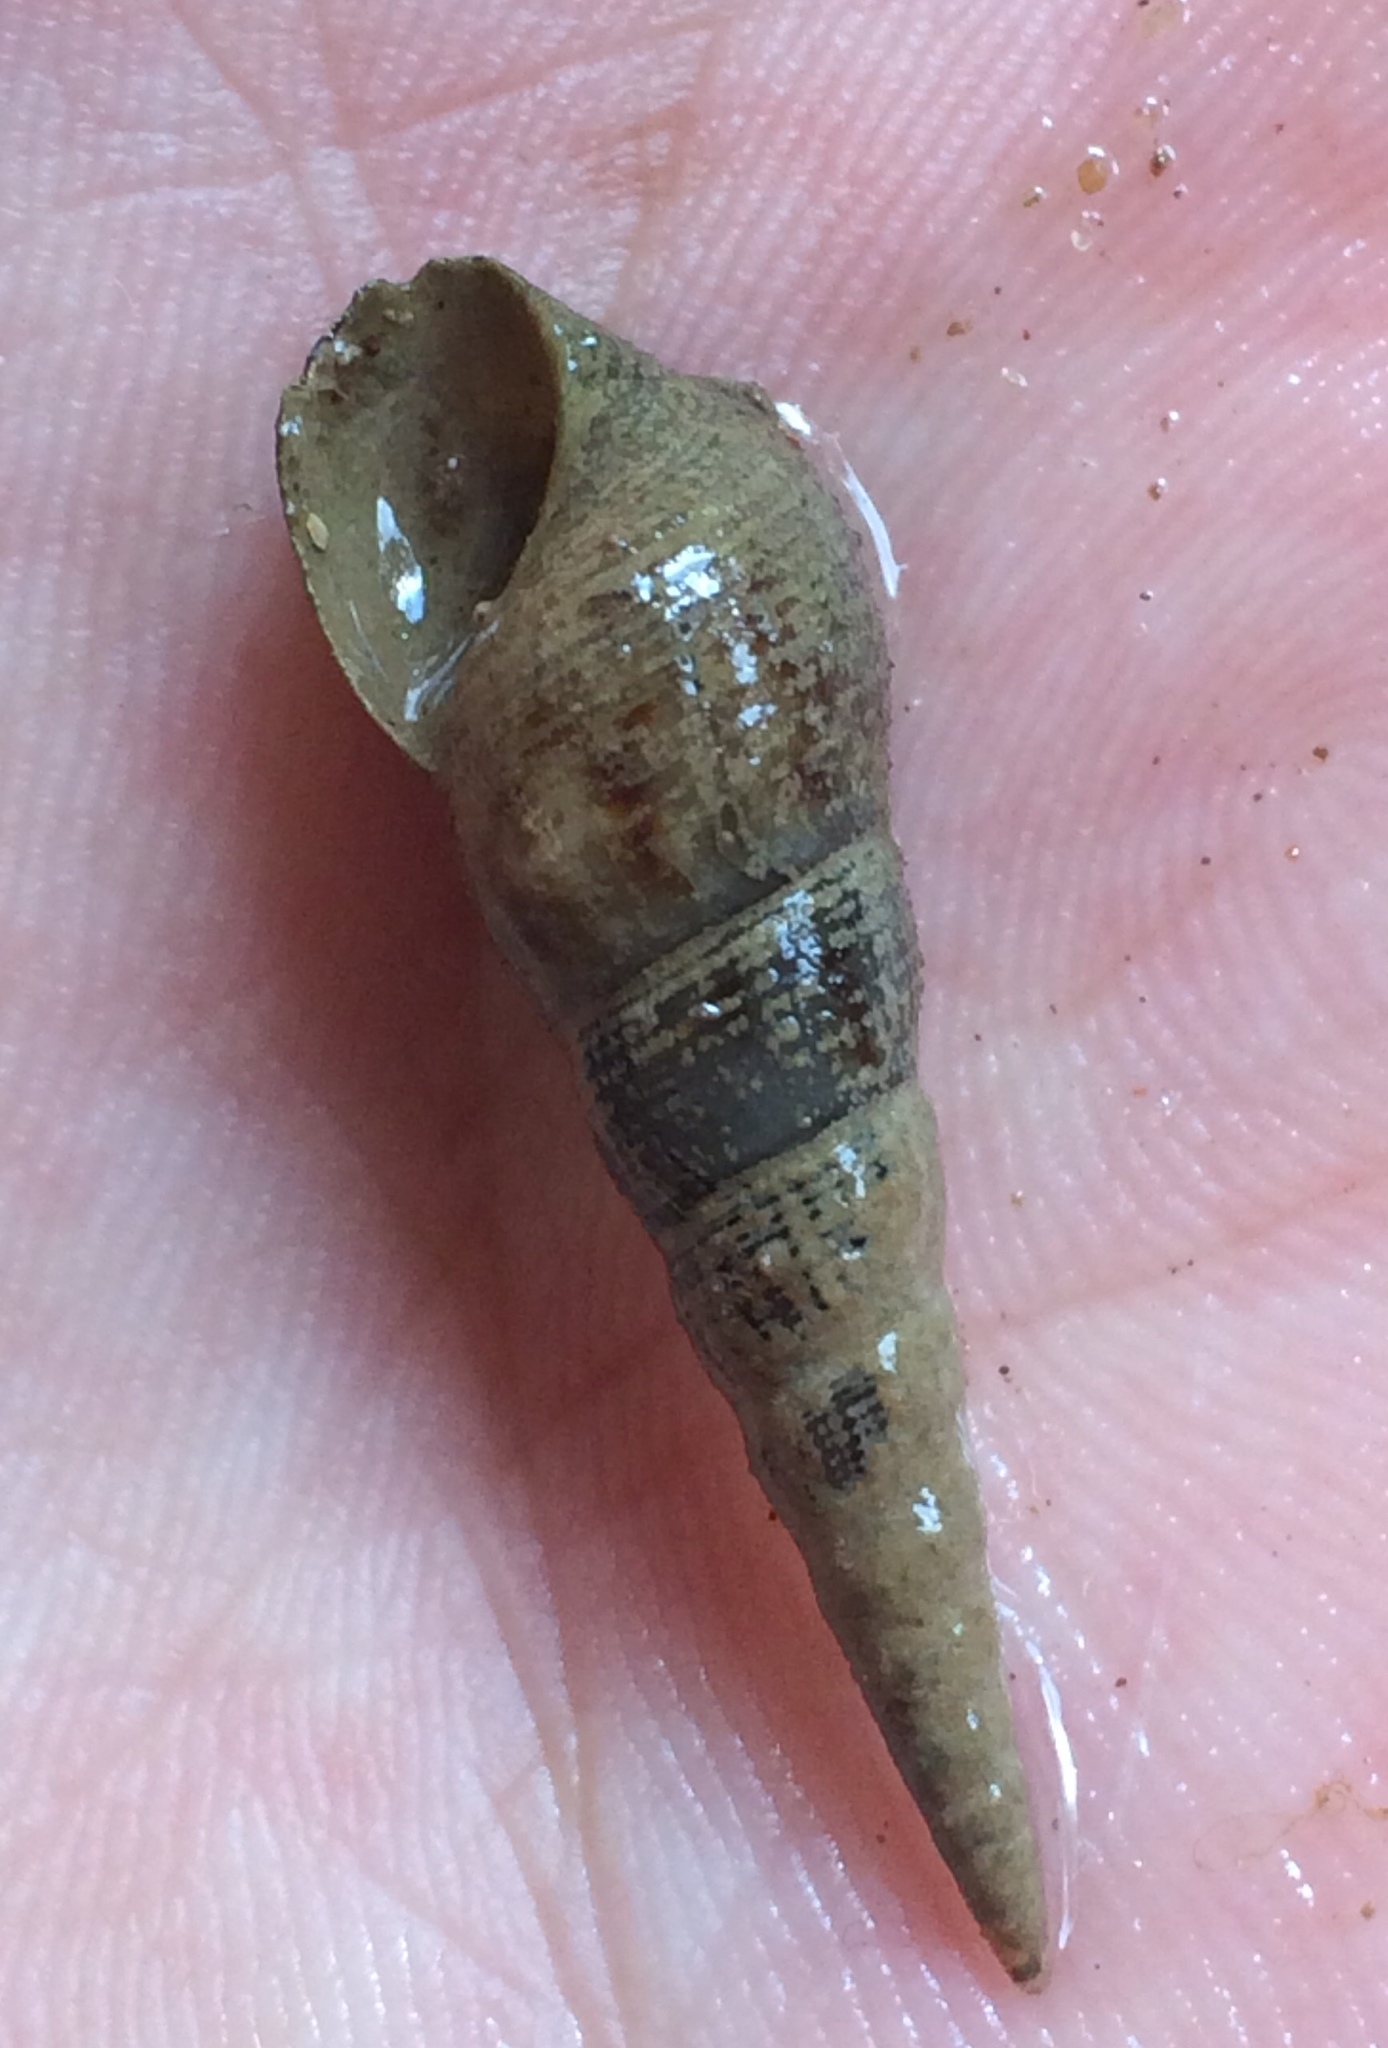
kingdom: Animalia
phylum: Mollusca
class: Gastropoda
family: Thiaridae
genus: Melanoides
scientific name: Melanoides tuberculata
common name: Red-rim melania
